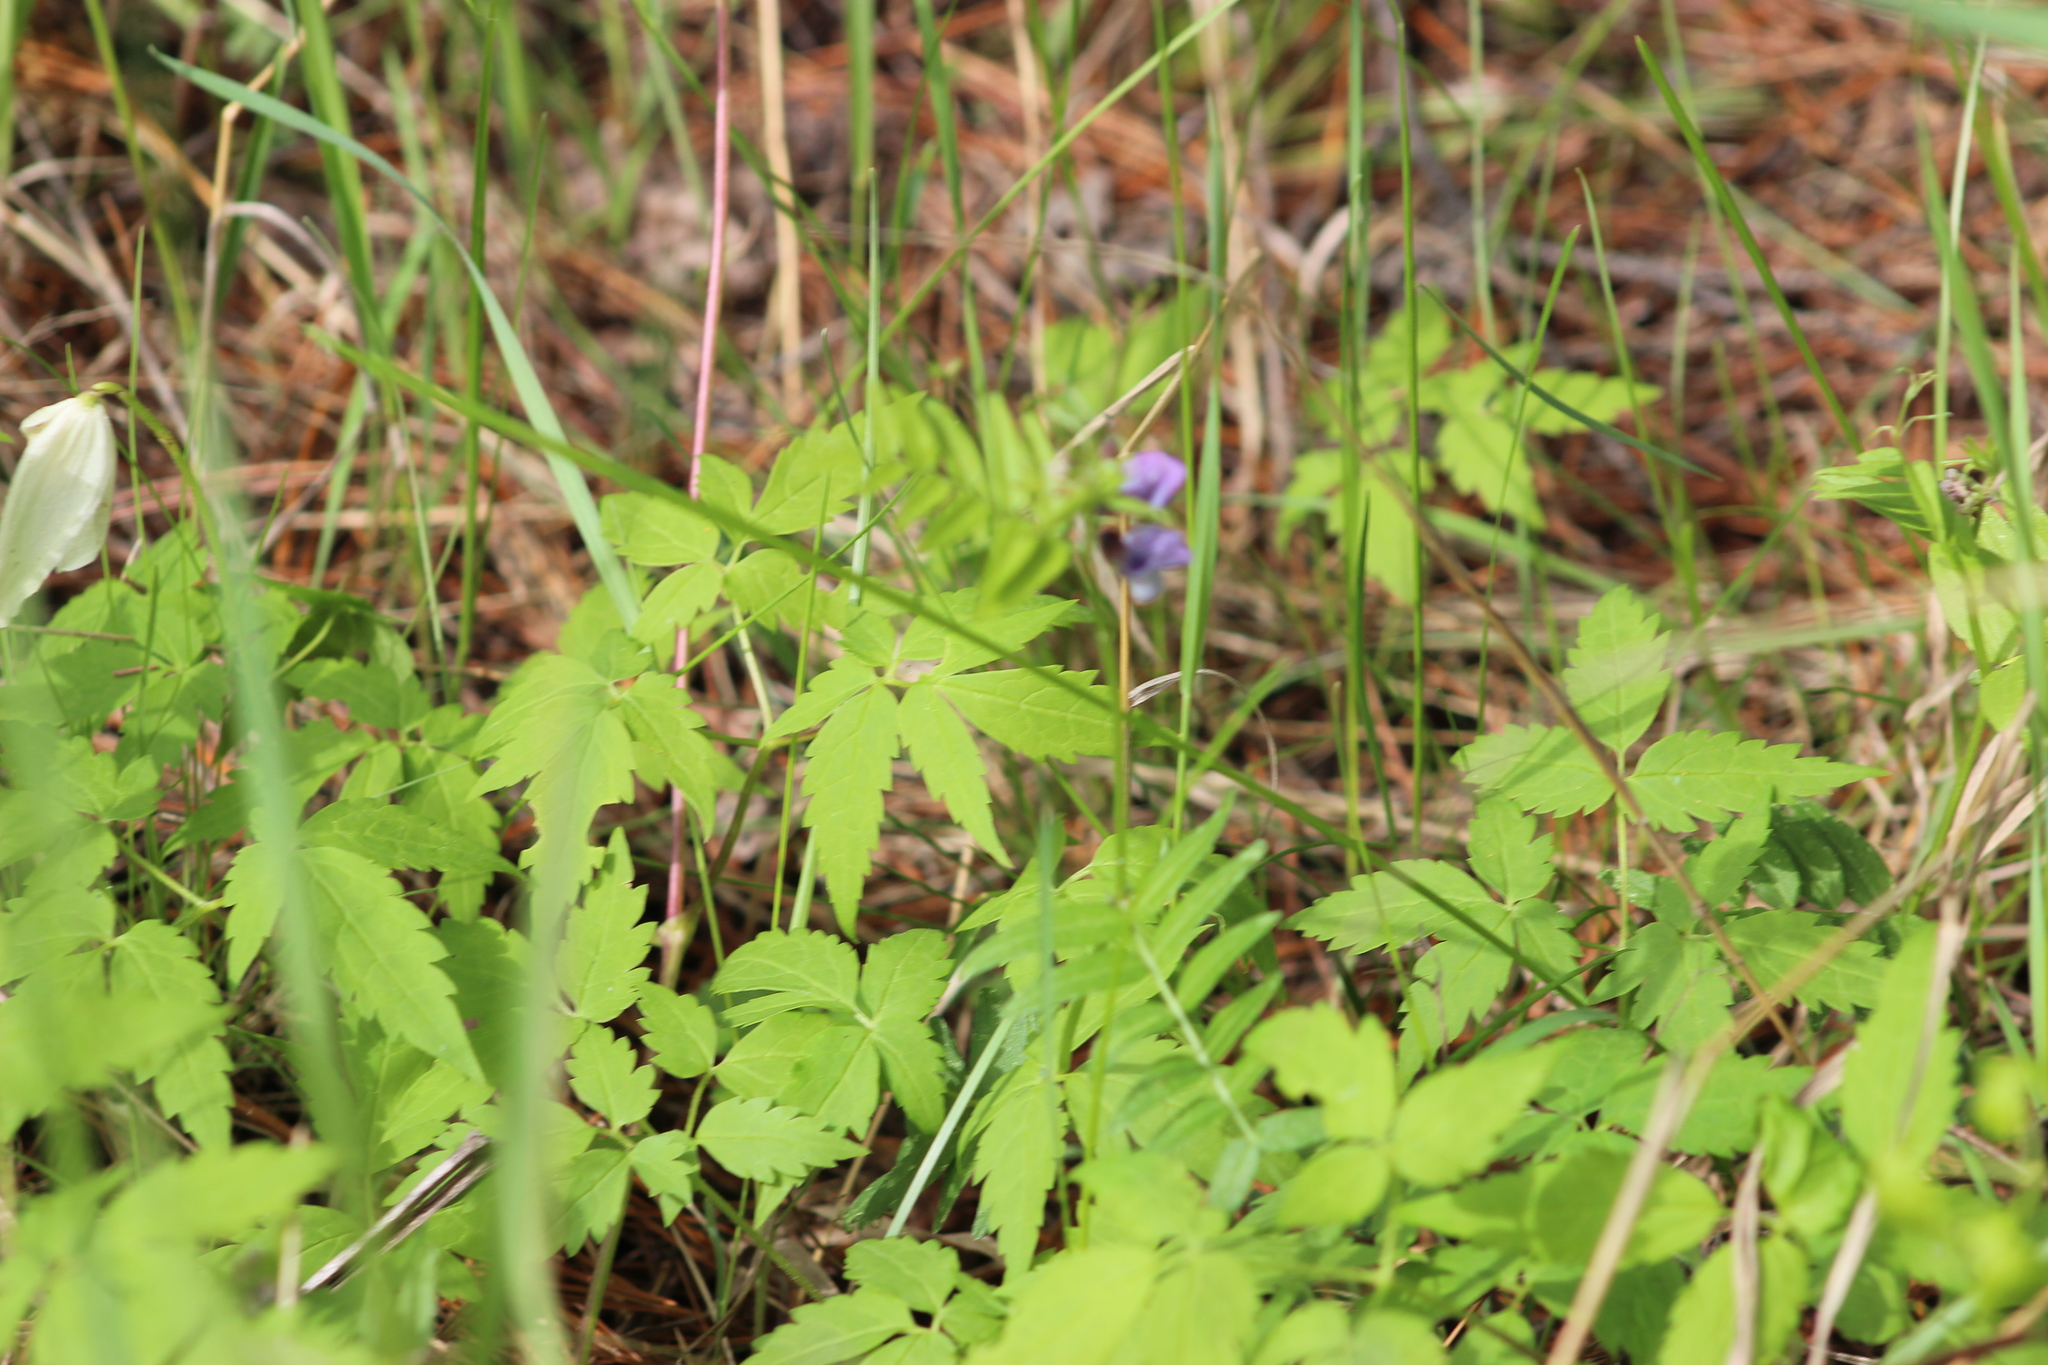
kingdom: Plantae
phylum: Tracheophyta
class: Magnoliopsida
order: Fabales
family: Fabaceae
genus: Vicia
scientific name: Vicia sepium
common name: Bush vetch
